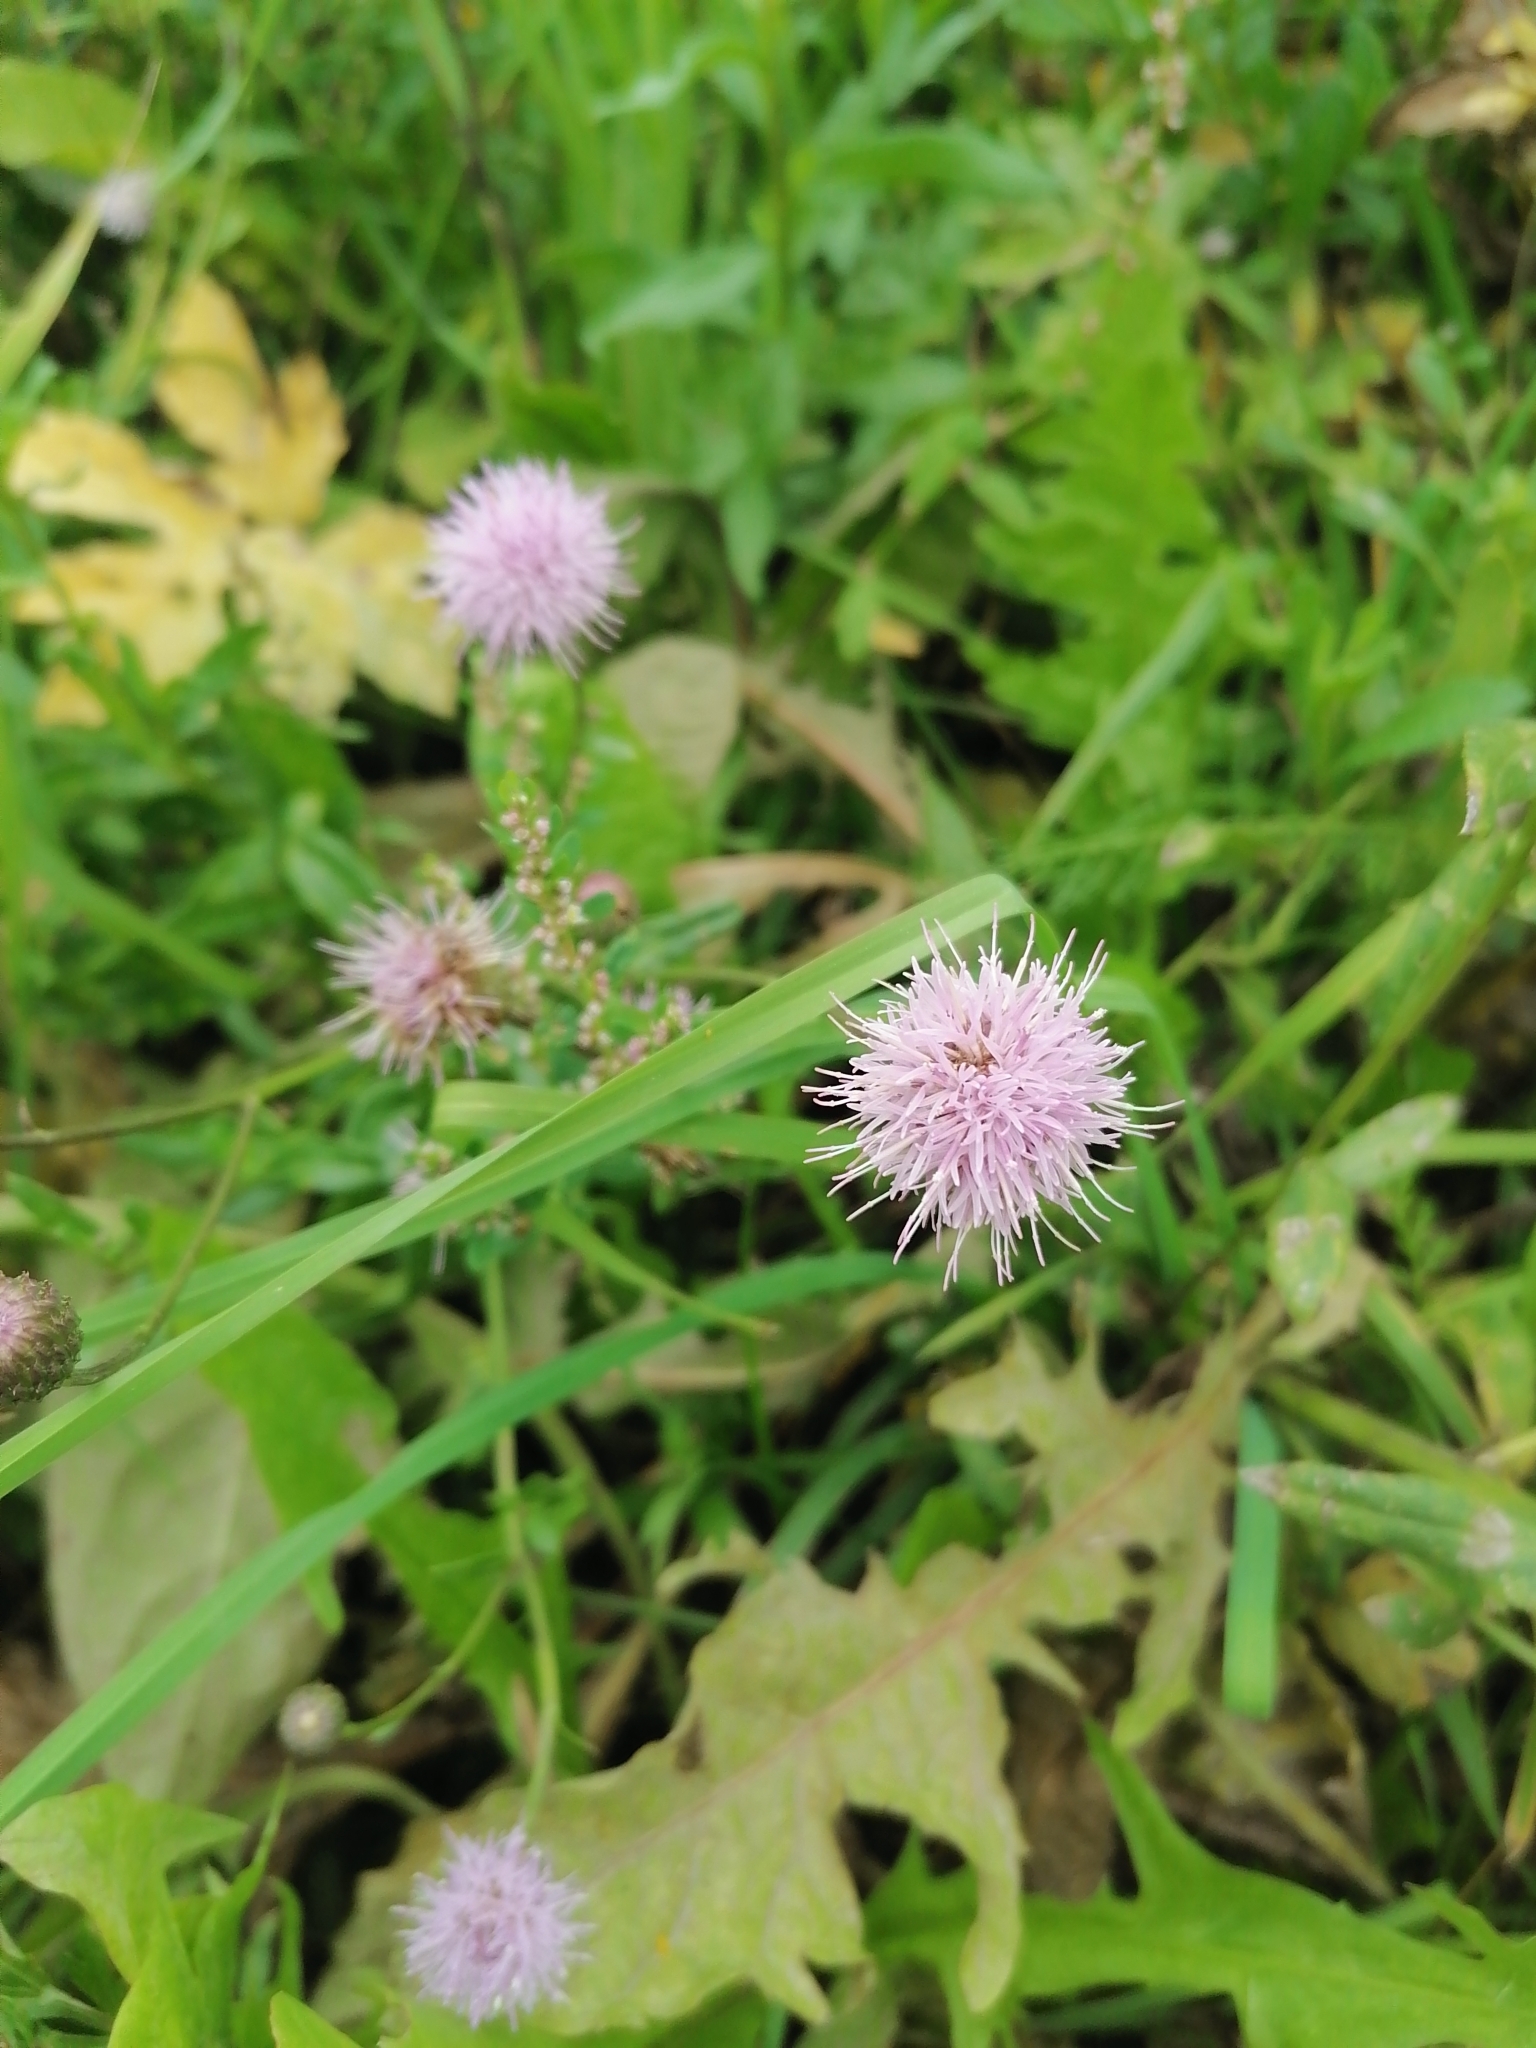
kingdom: Plantae
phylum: Tracheophyta
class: Magnoliopsida
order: Asterales
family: Asteraceae
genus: Cirsium
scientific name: Cirsium arvense
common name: Creeping thistle
